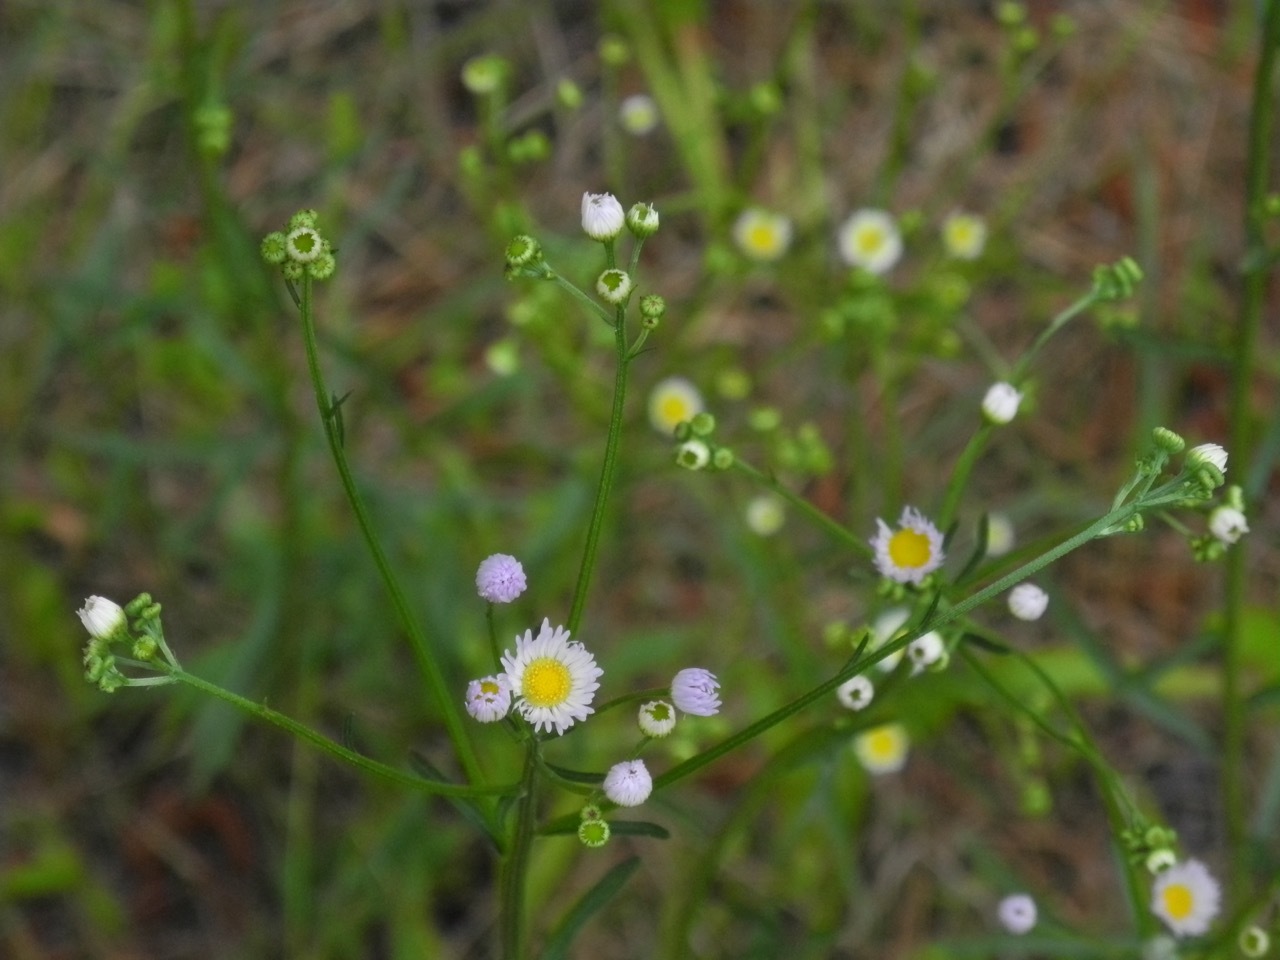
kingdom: Plantae
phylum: Tracheophyta
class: Magnoliopsida
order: Asterales
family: Asteraceae
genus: Erigeron
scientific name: Erigeron strigosus
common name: Common eastern fleabane
